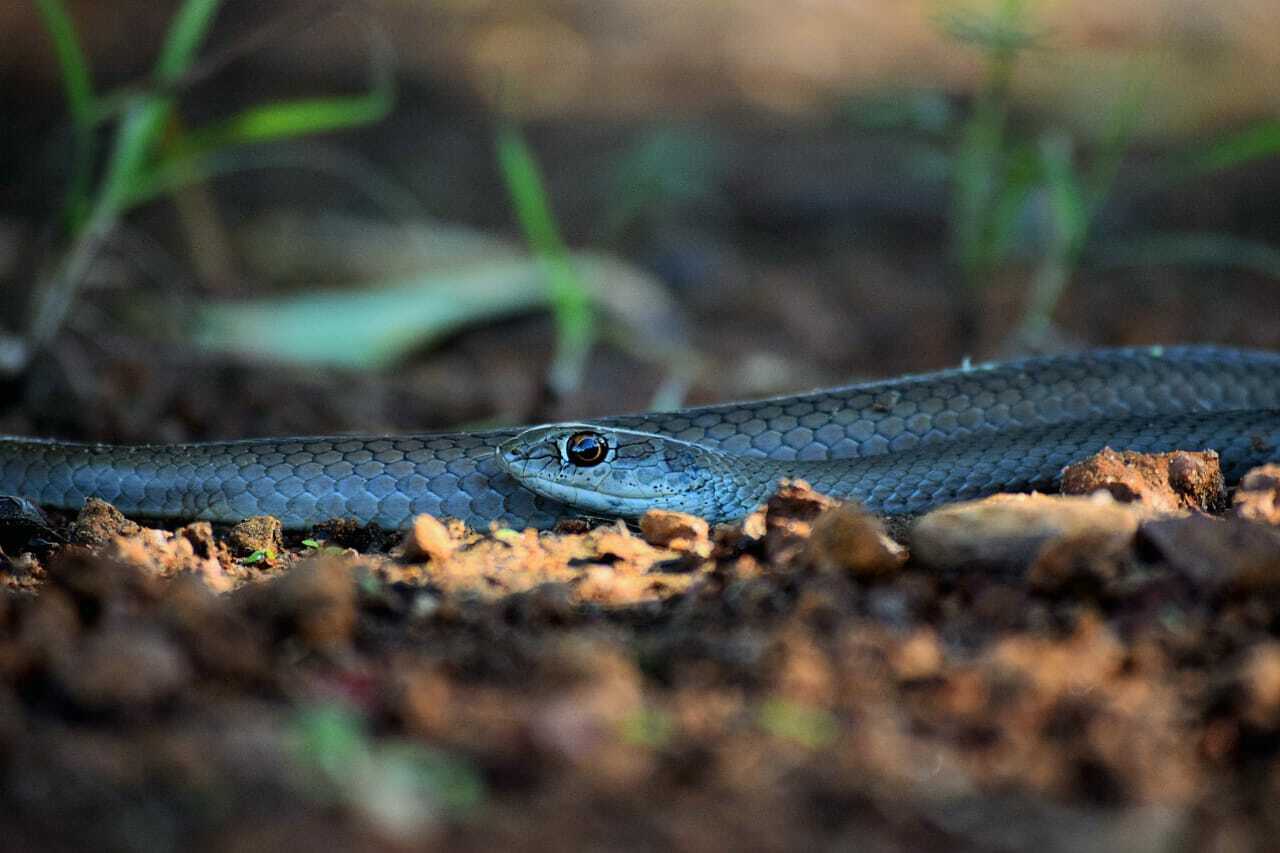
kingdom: Animalia
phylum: Chordata
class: Squamata
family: Psammophiidae
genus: Psammophis
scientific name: Psammophis brevirostris
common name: Short-snouted grass snake
